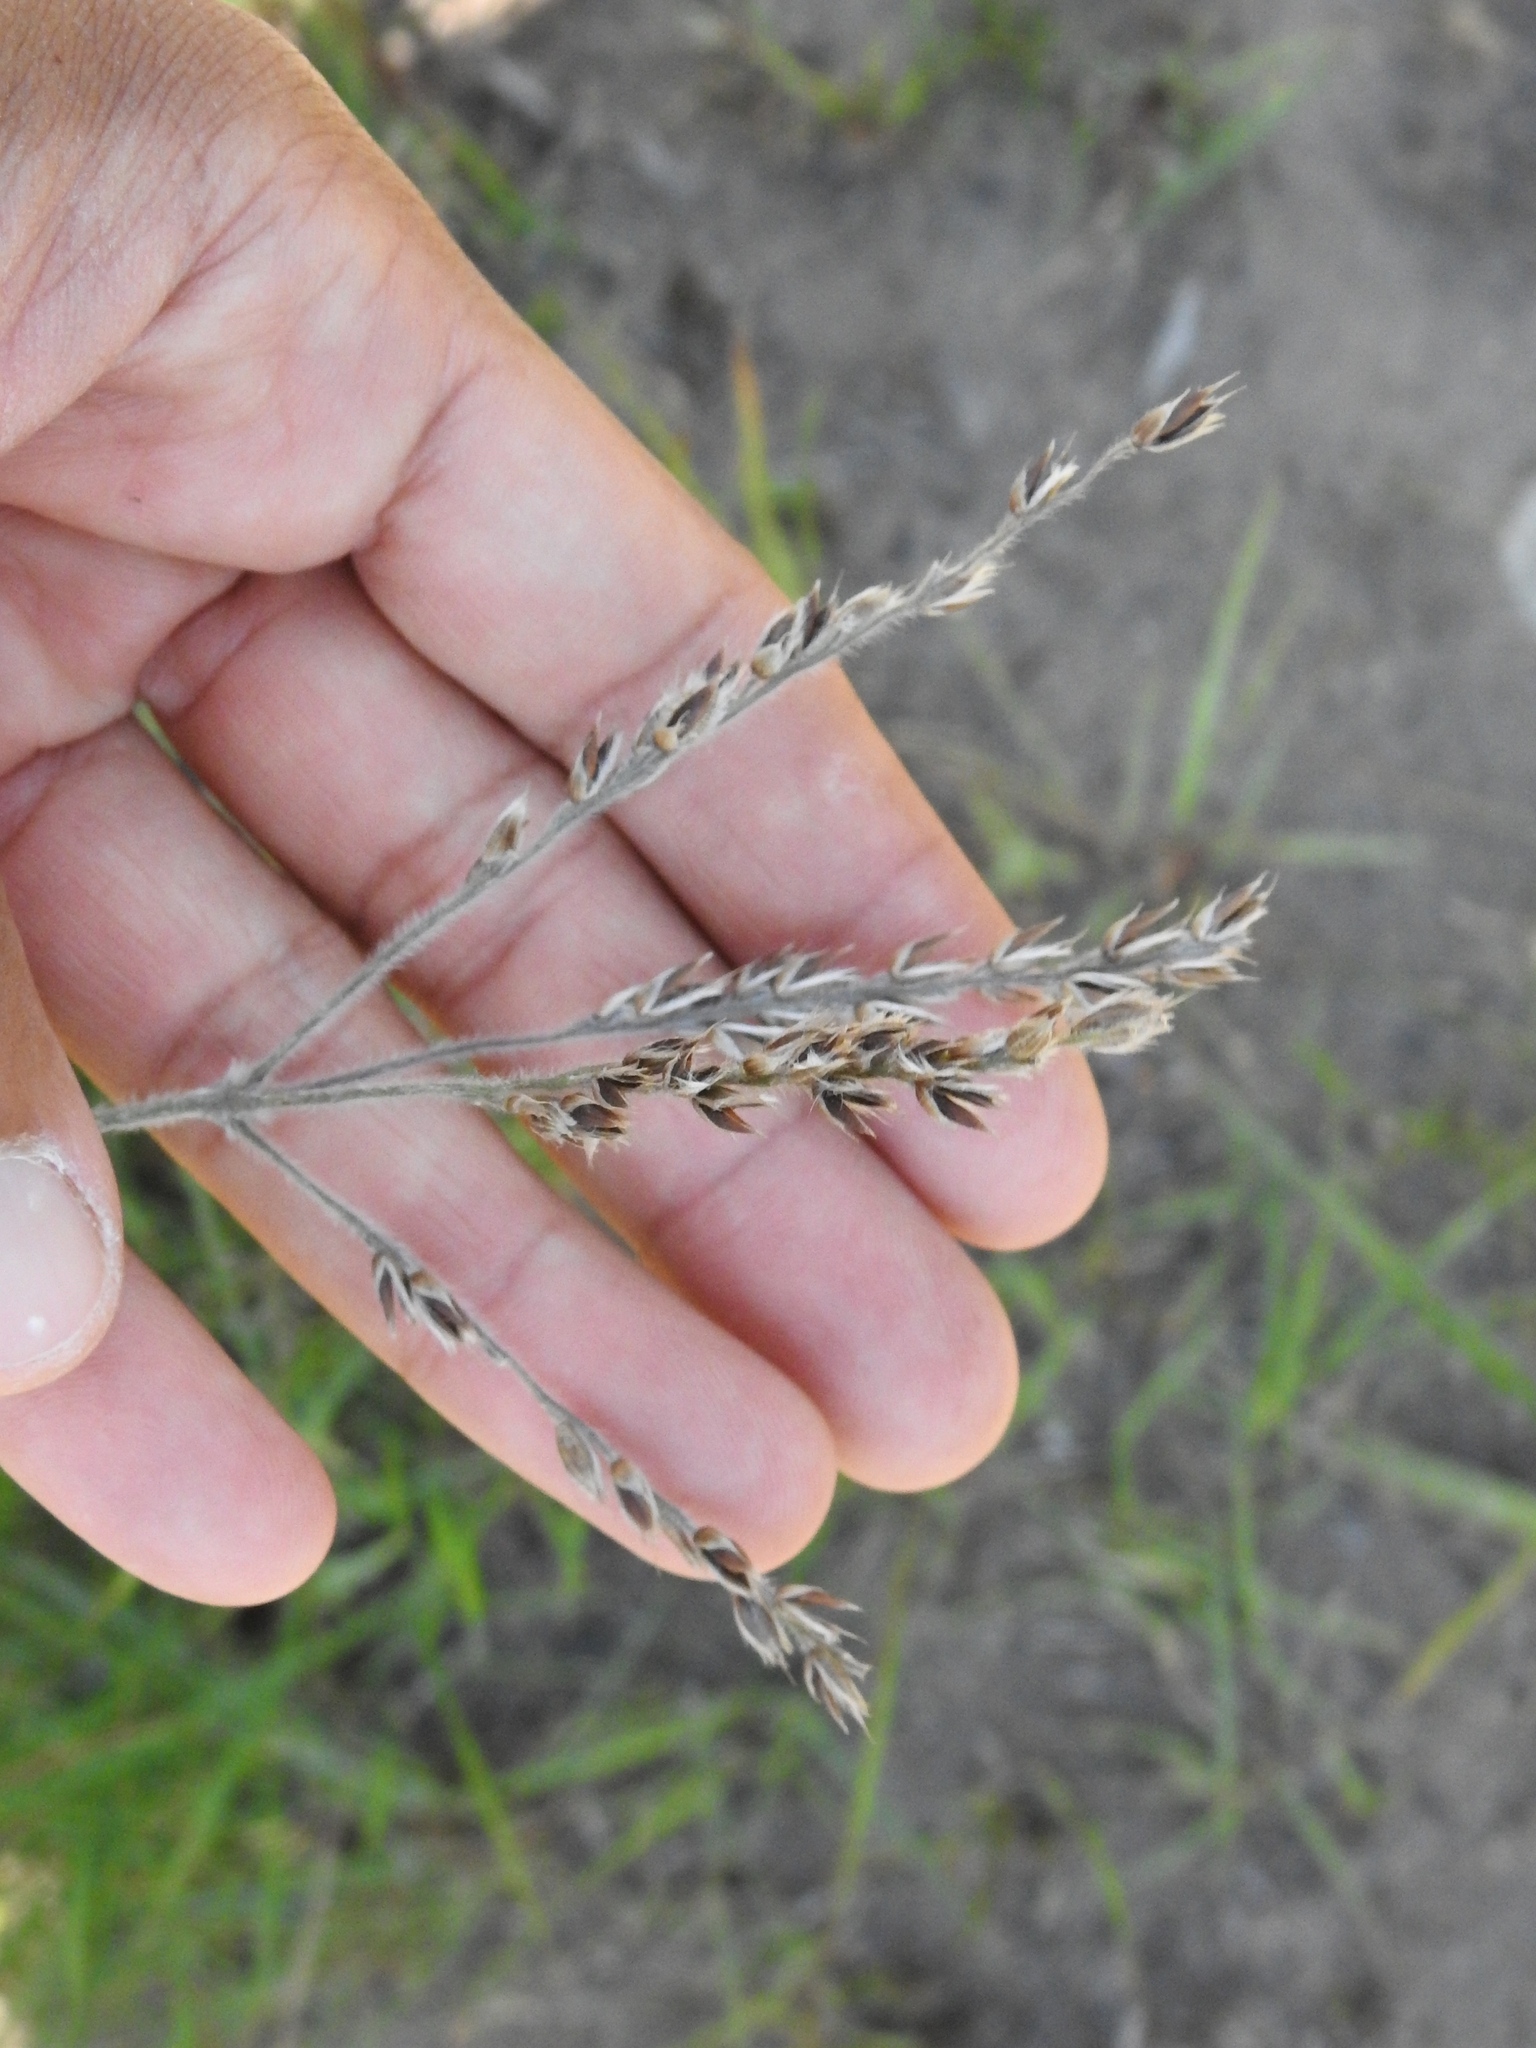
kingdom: Plantae
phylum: Tracheophyta
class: Liliopsida
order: Poales
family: Poaceae
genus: Alloteropsis
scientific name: Alloteropsis semialata
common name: Cockatoo grass
